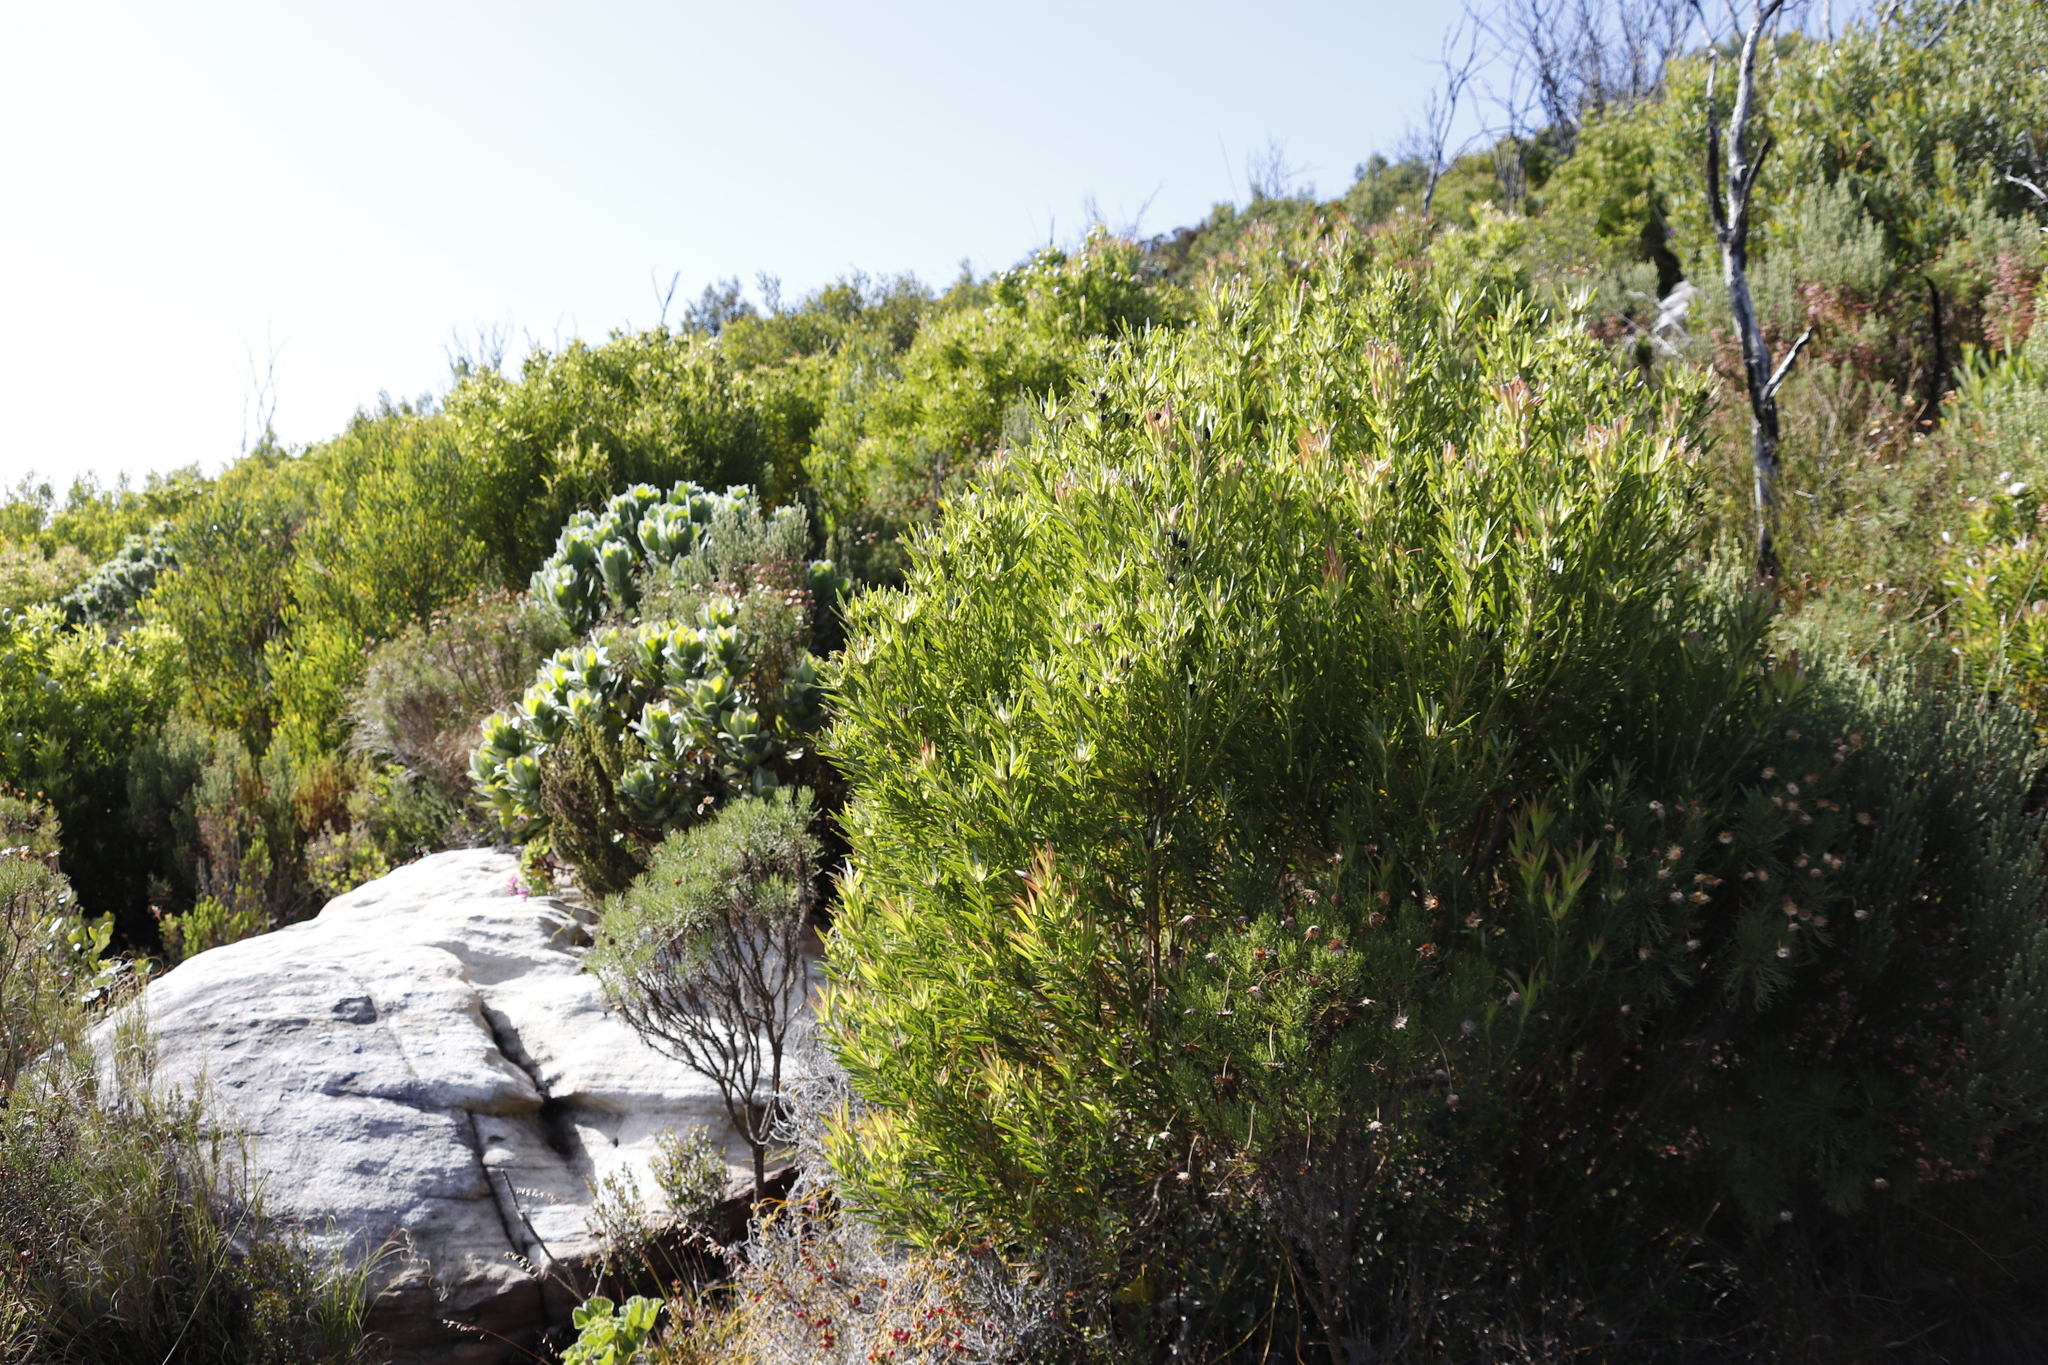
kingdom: Plantae
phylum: Tracheophyta
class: Magnoliopsida
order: Proteales
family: Proteaceae
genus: Leucadendron
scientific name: Leucadendron xanthoconus
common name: Sickle-leaf conebush
